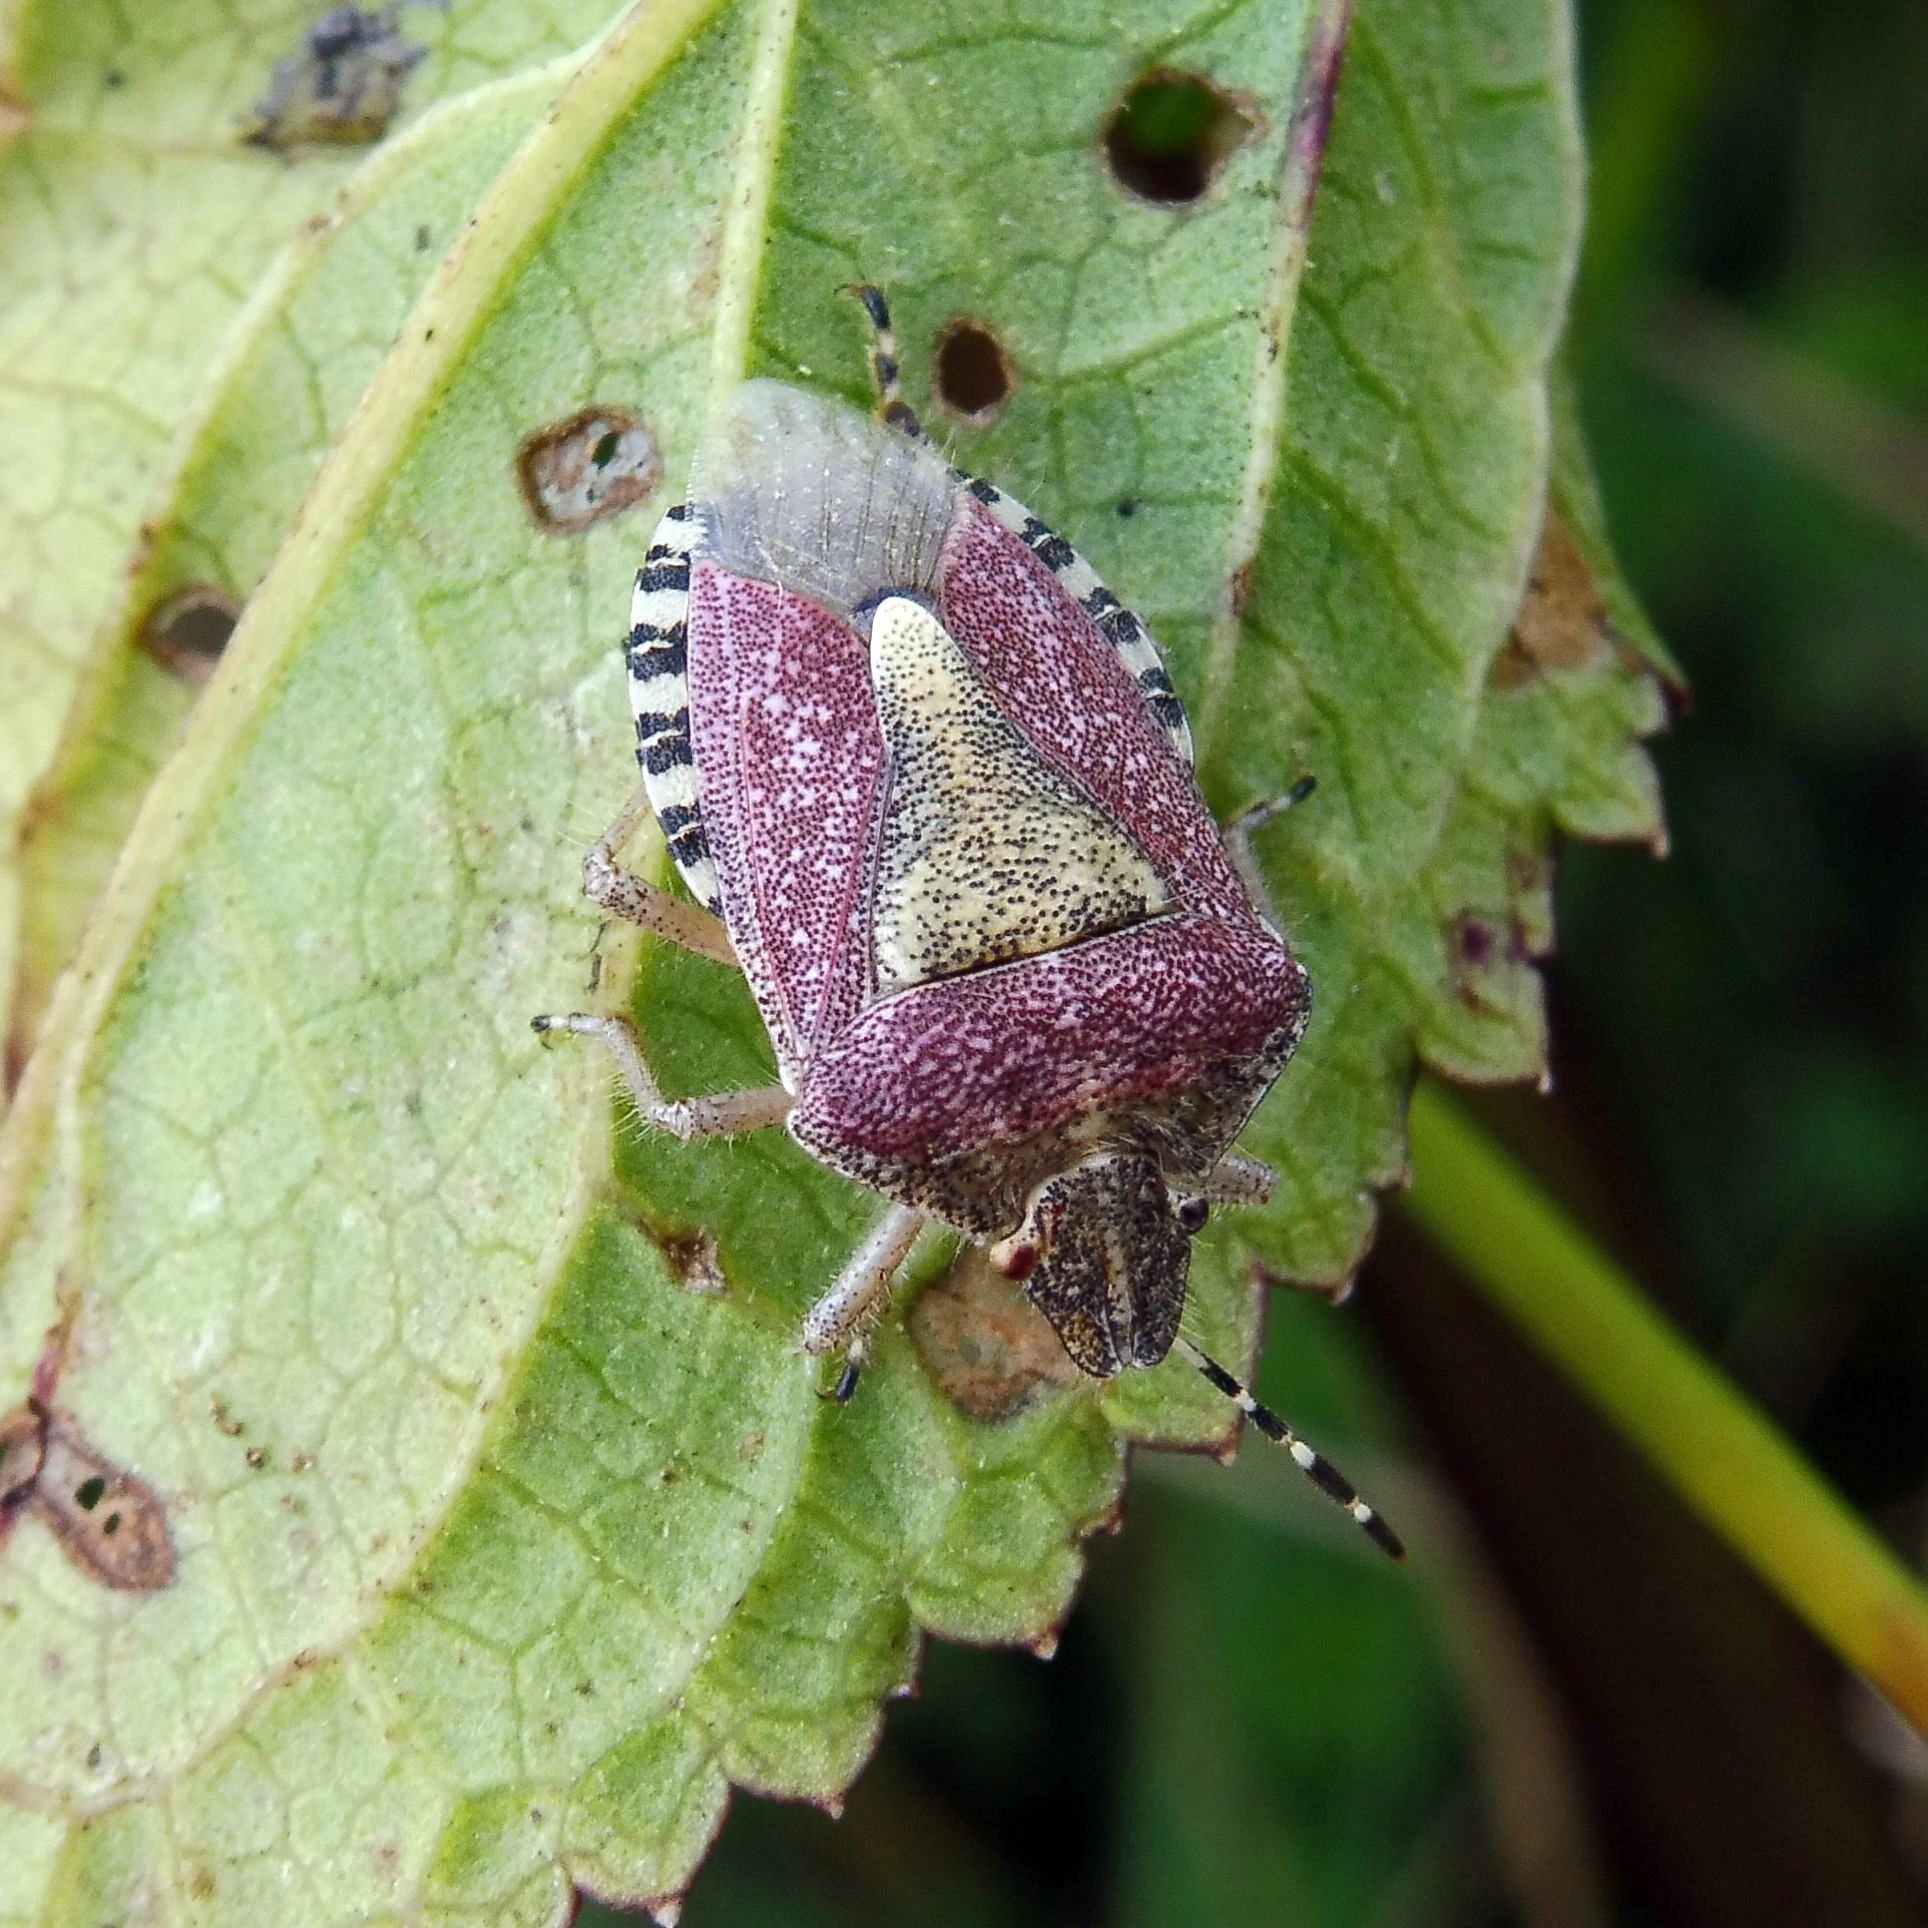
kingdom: Animalia
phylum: Arthropoda
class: Insecta
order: Hemiptera
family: Pentatomidae
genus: Dolycoris
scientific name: Dolycoris baccarum
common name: Sloe bug
